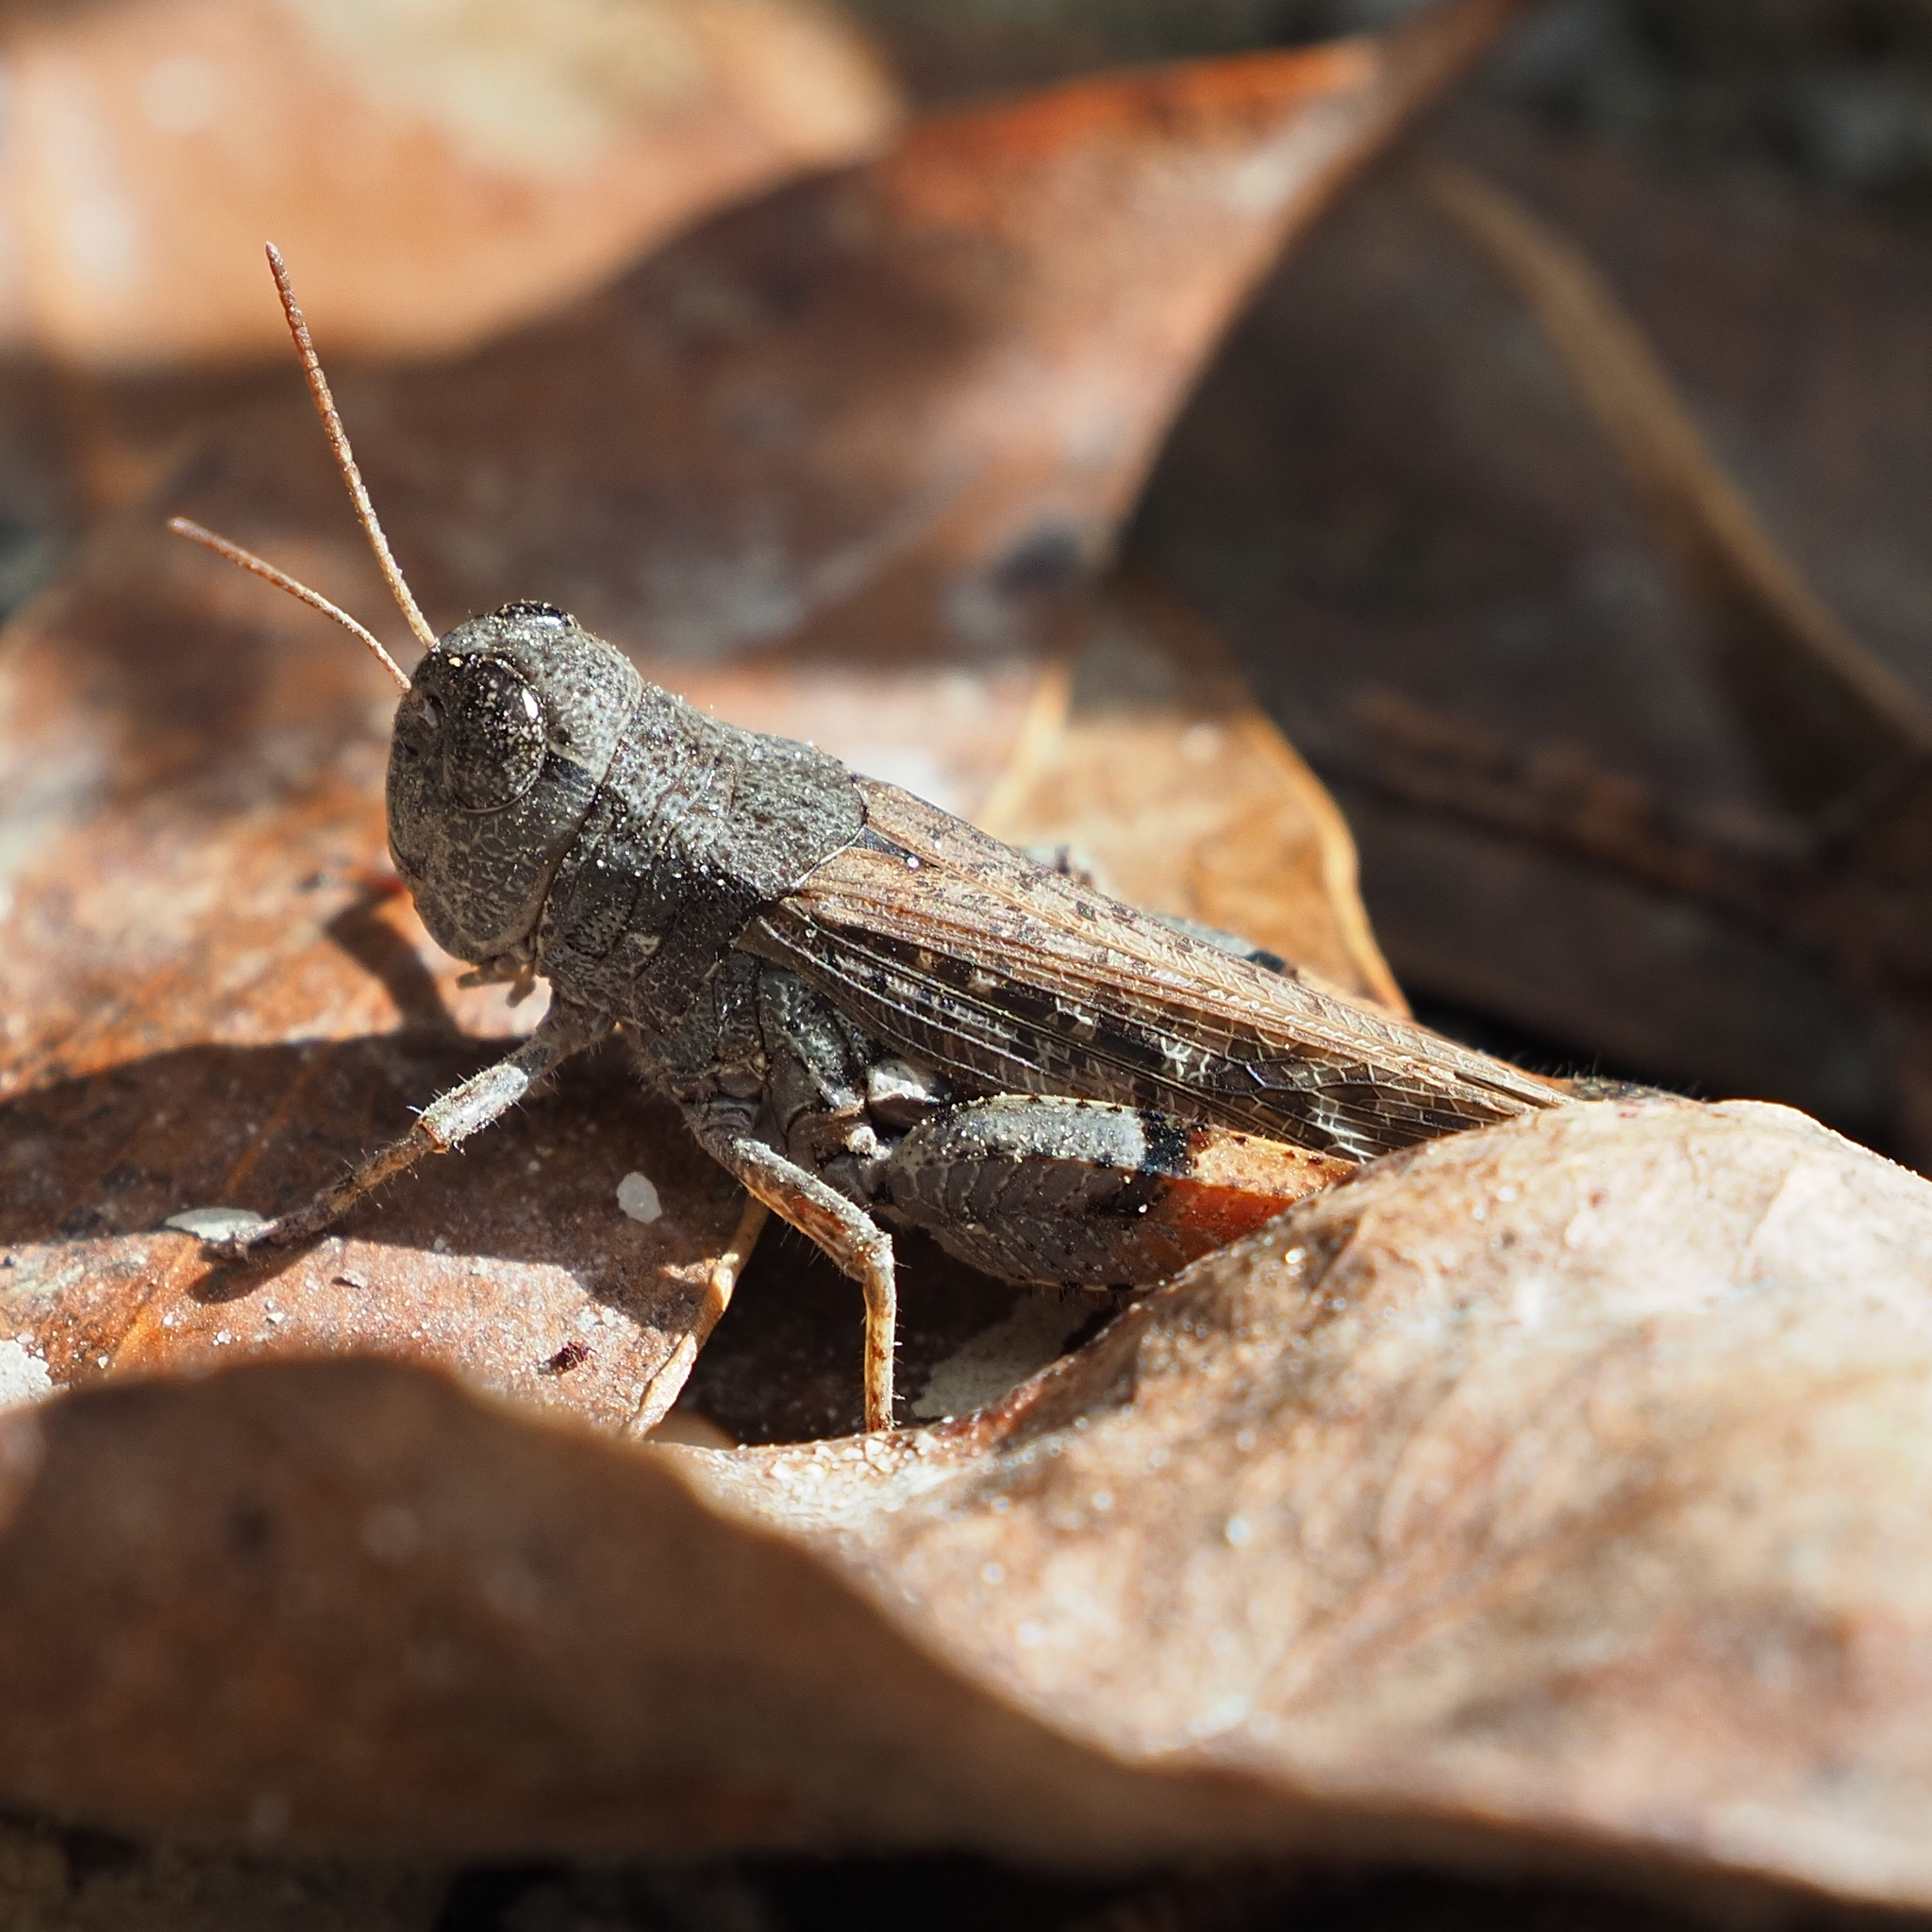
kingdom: Animalia
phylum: Arthropoda
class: Insecta
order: Orthoptera
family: Acrididae
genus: Exarna
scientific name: Exarna includens
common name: Red-legged exarna
